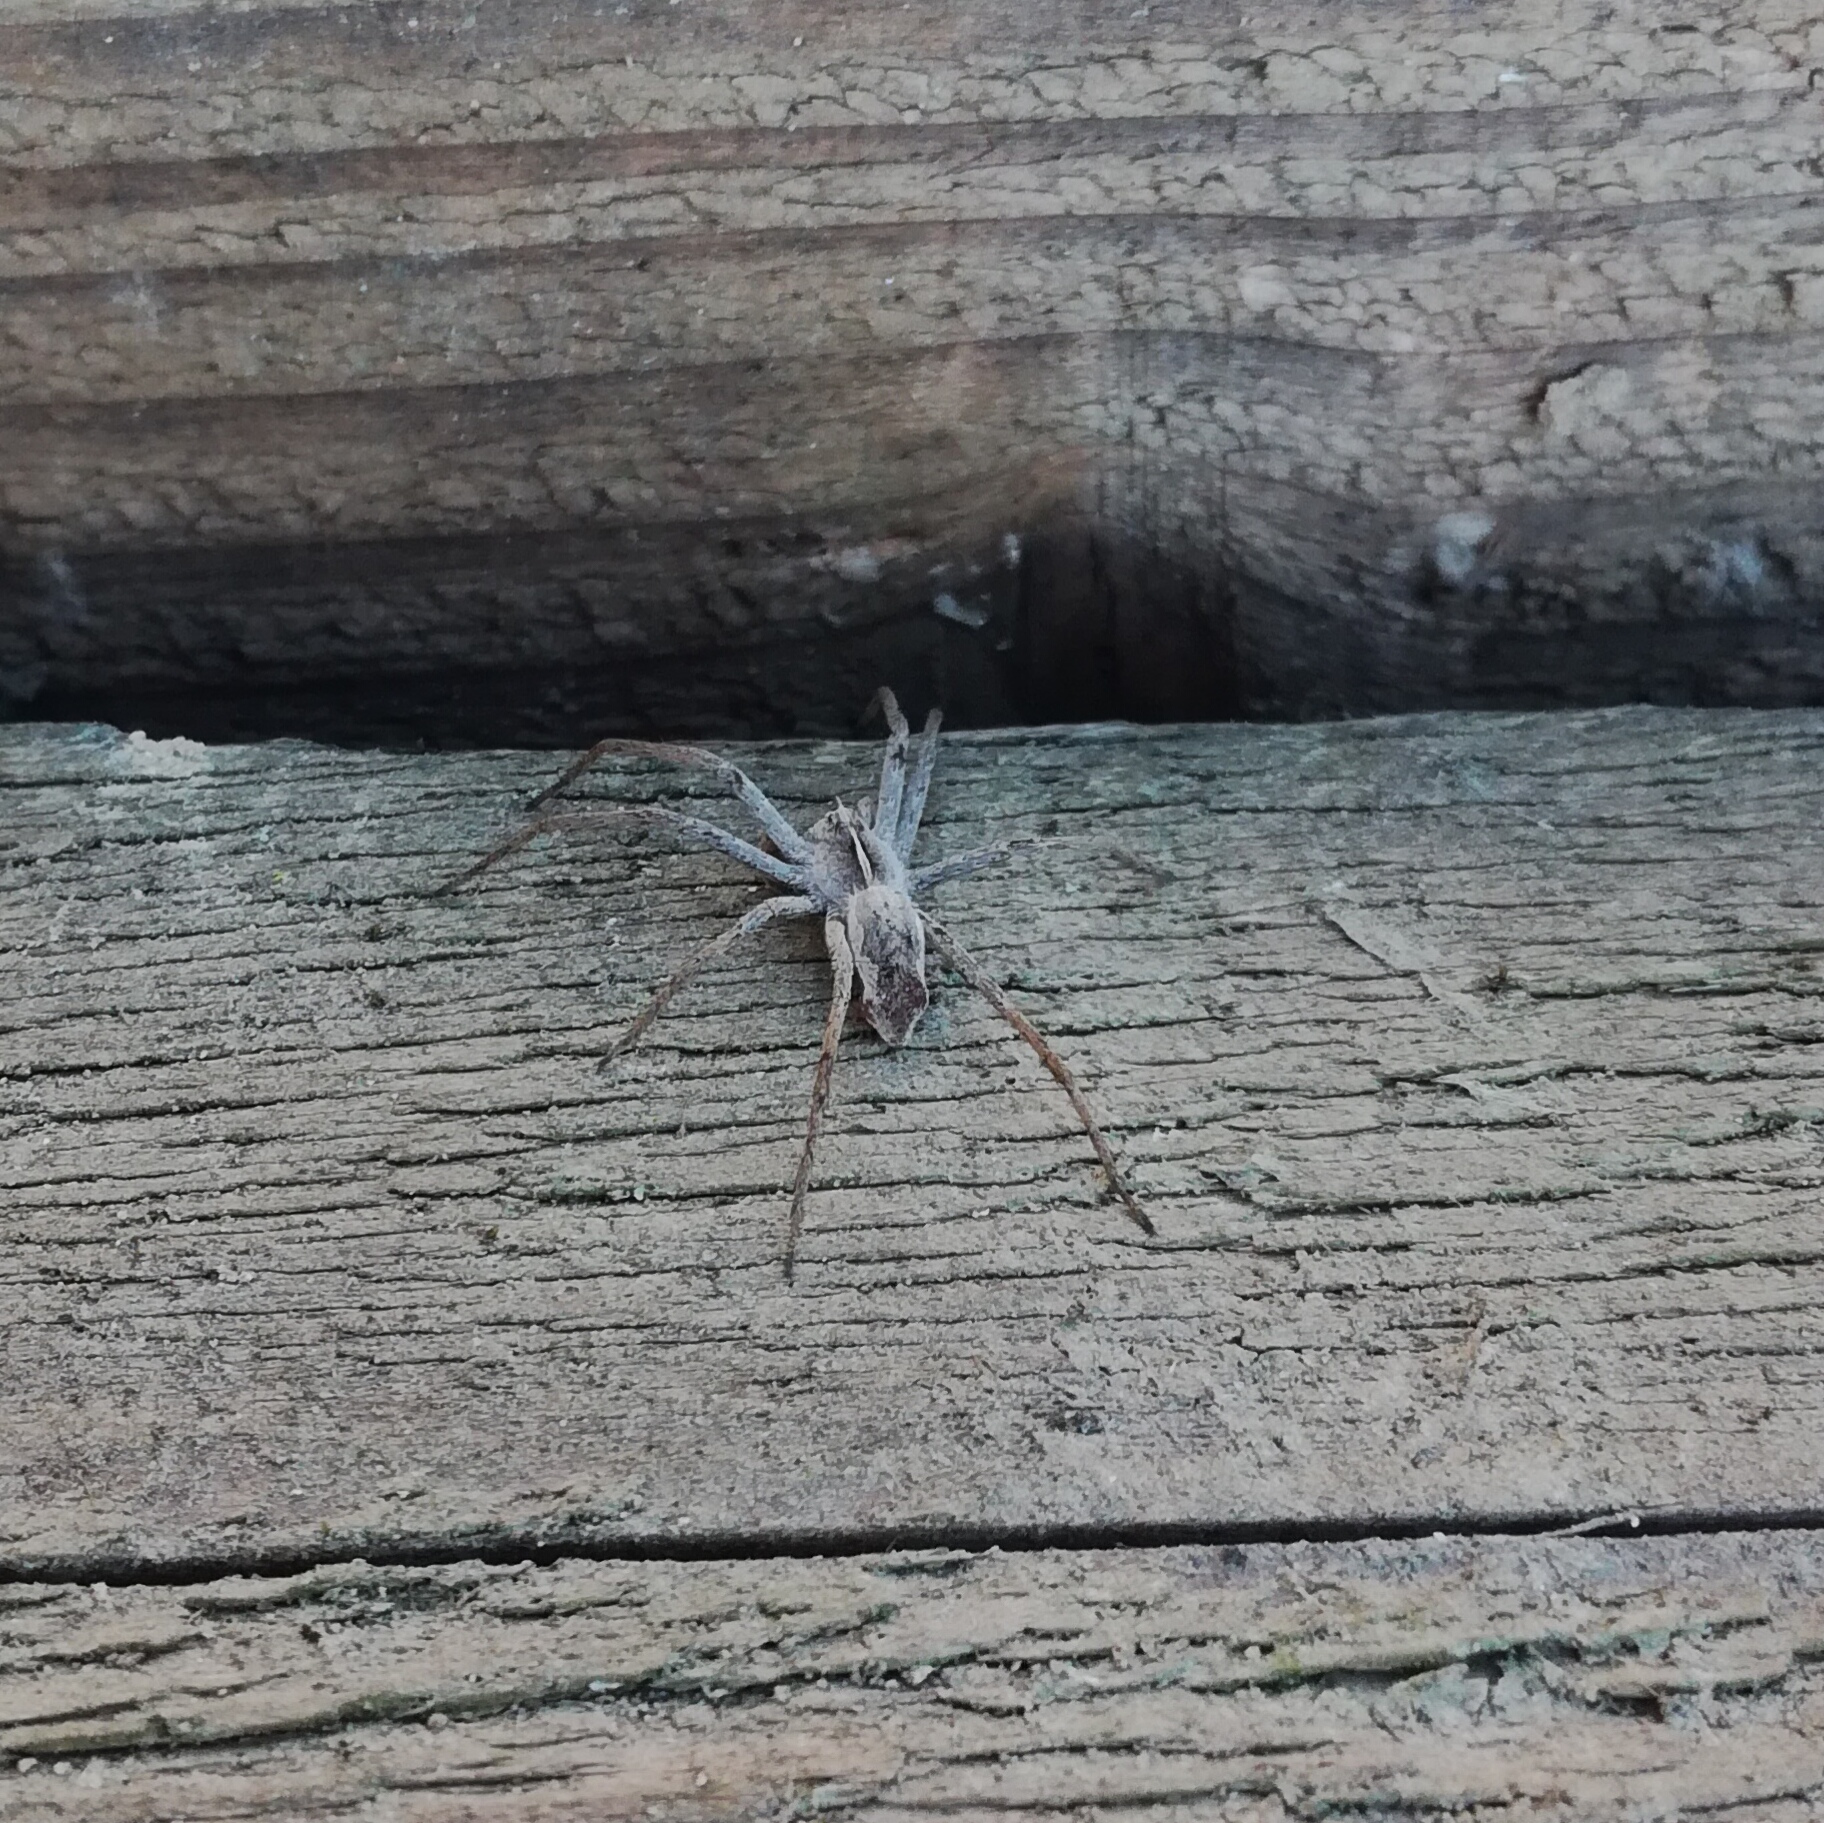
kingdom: Animalia
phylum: Arthropoda
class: Arachnida
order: Araneae
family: Pisauridae
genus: Pisaura
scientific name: Pisaura mirabilis
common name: Tent spider
